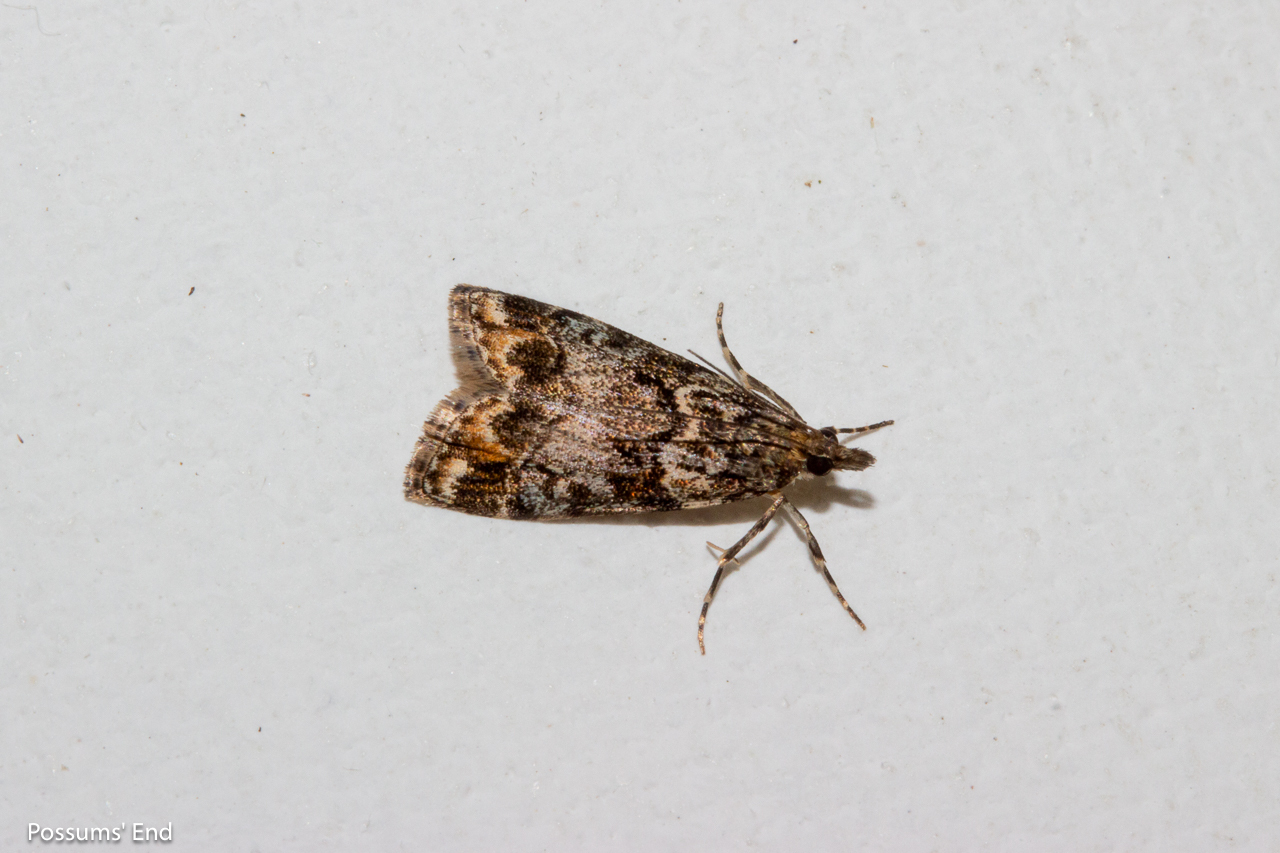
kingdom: Animalia
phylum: Arthropoda
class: Insecta
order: Lepidoptera
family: Crambidae
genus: Eudonia
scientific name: Eudonia minualis
